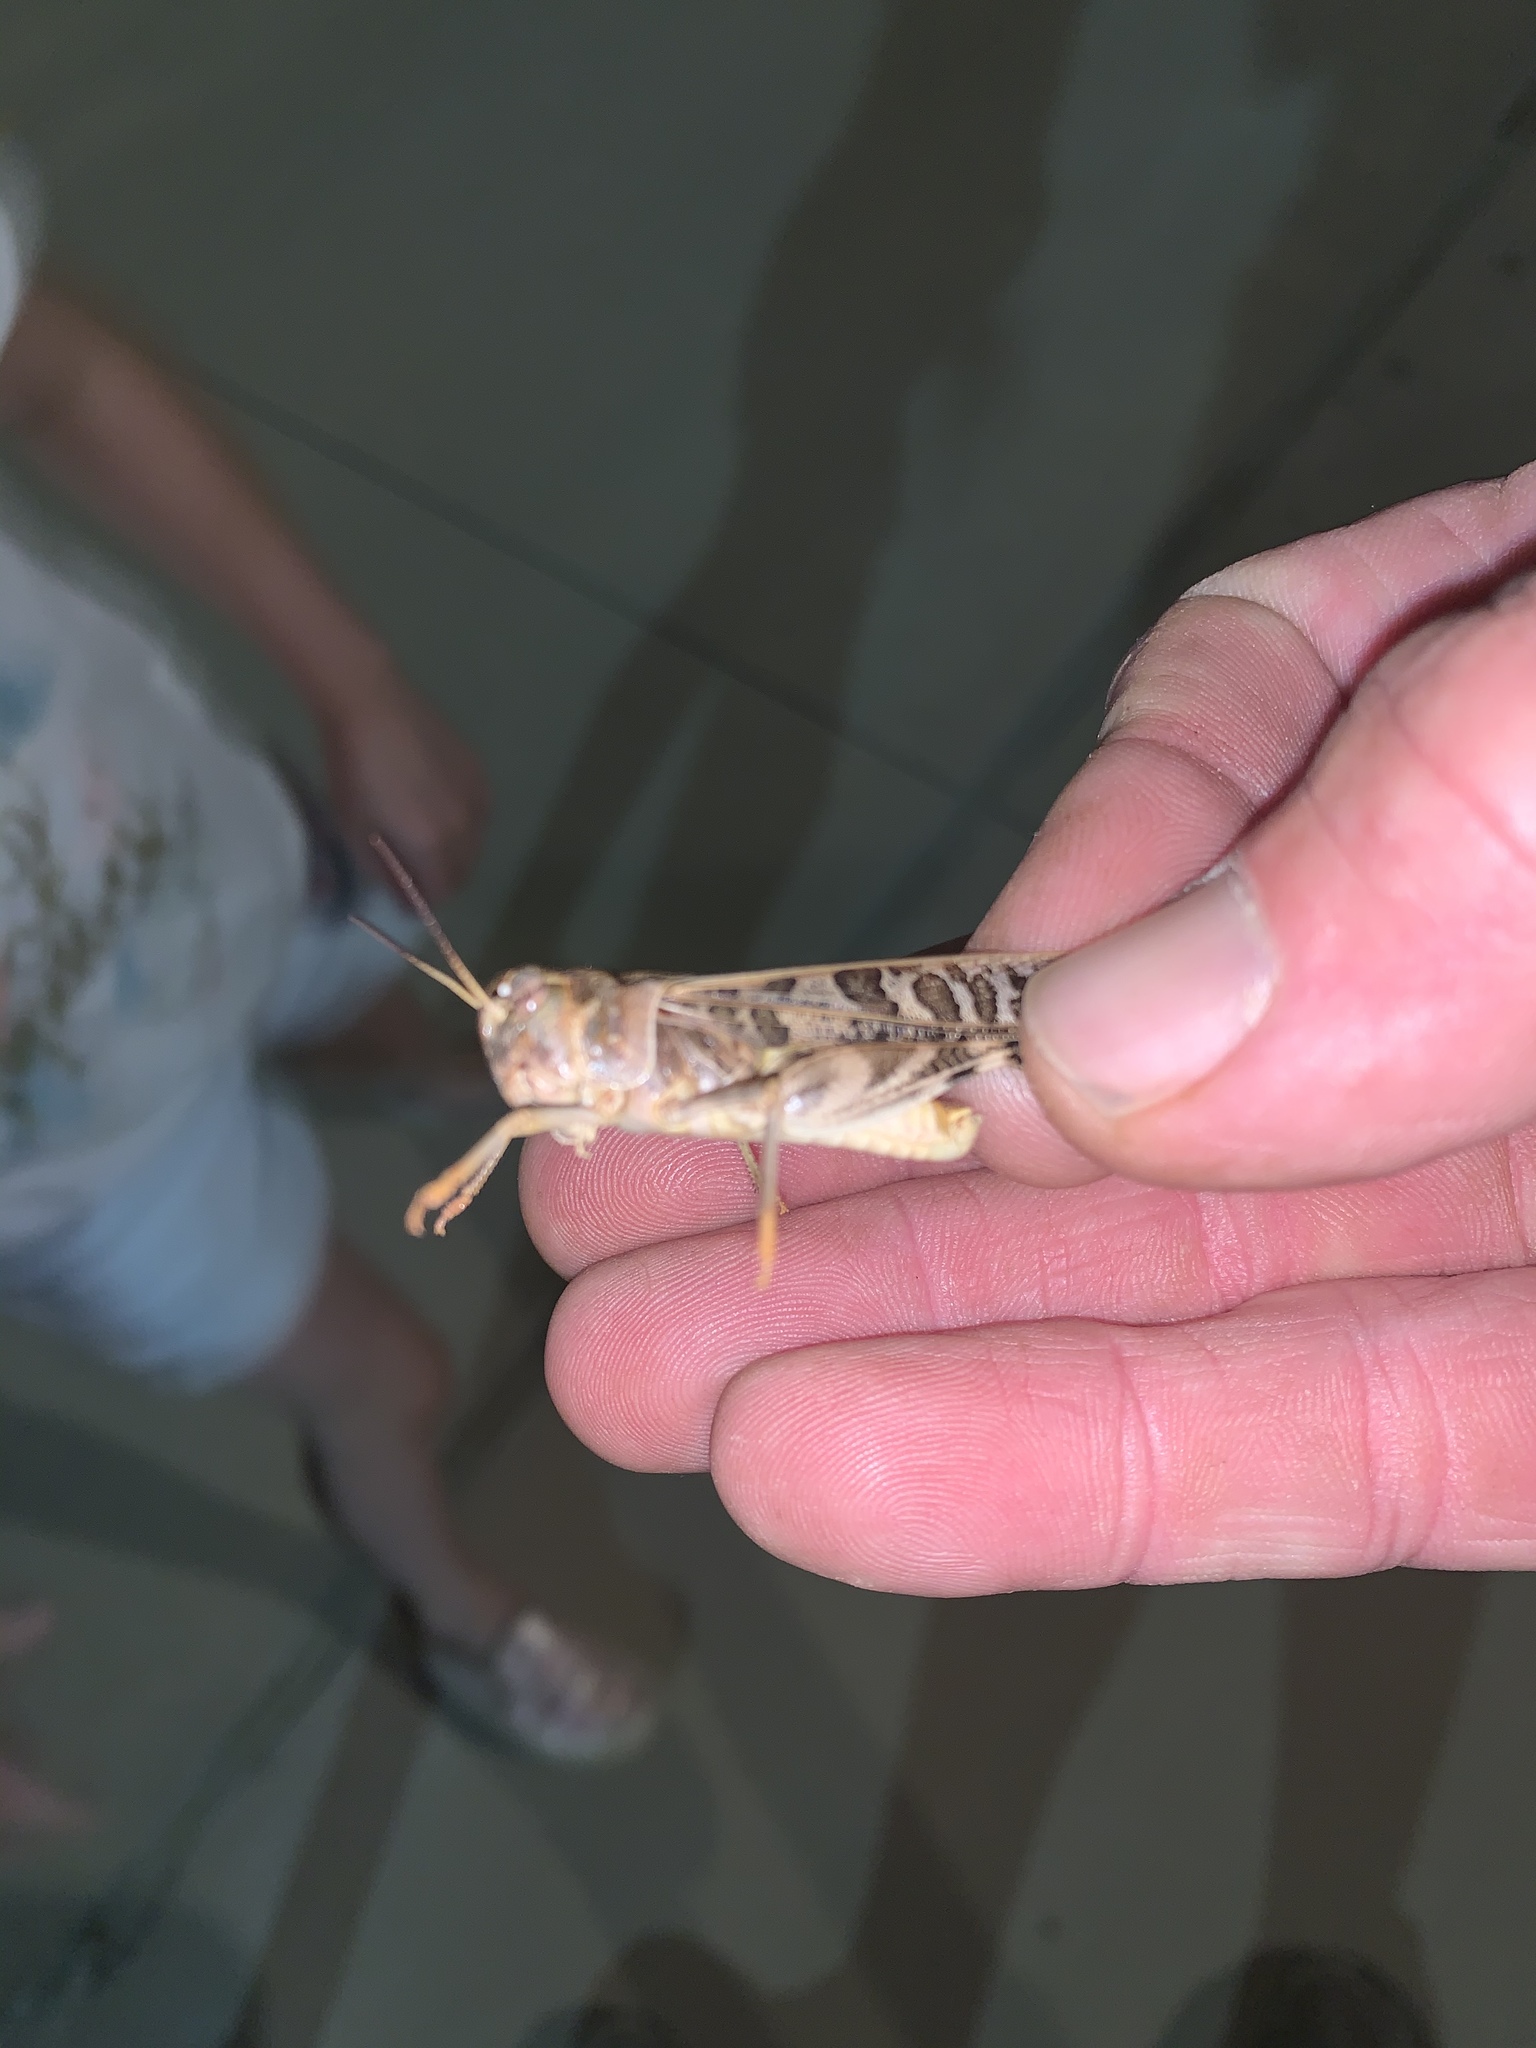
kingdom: Animalia
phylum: Arthropoda
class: Insecta
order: Orthoptera
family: Acrididae
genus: Hippiscus
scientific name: Hippiscus ocelote
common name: Wrinkled grasshopper
